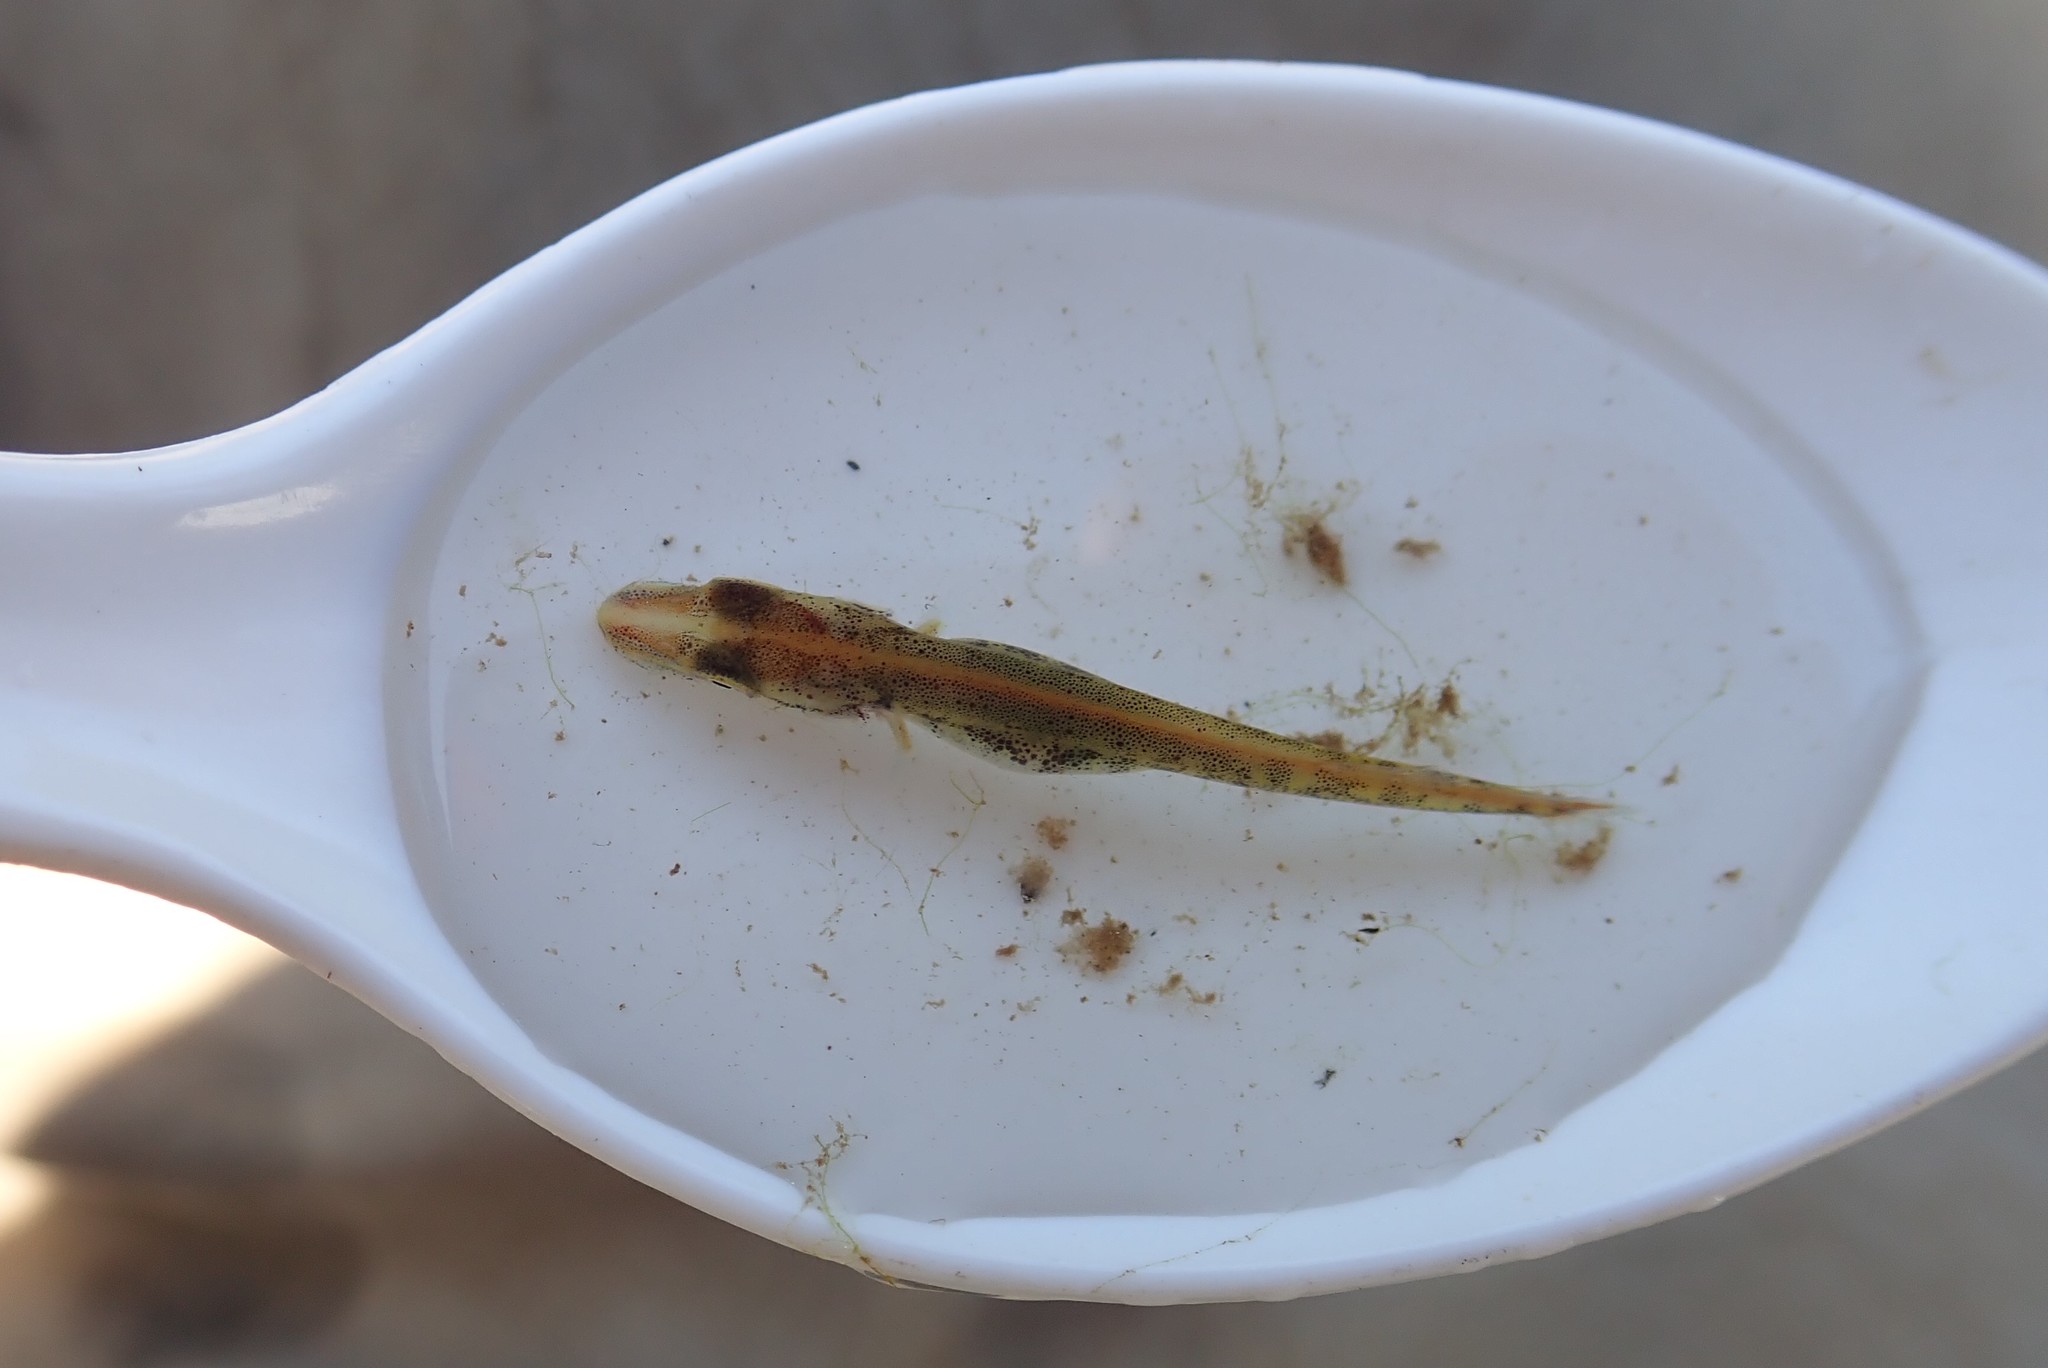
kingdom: Animalia
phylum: Chordata
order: Esociformes
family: Esocidae
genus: Esox
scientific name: Esox lucius
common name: Northern pike
